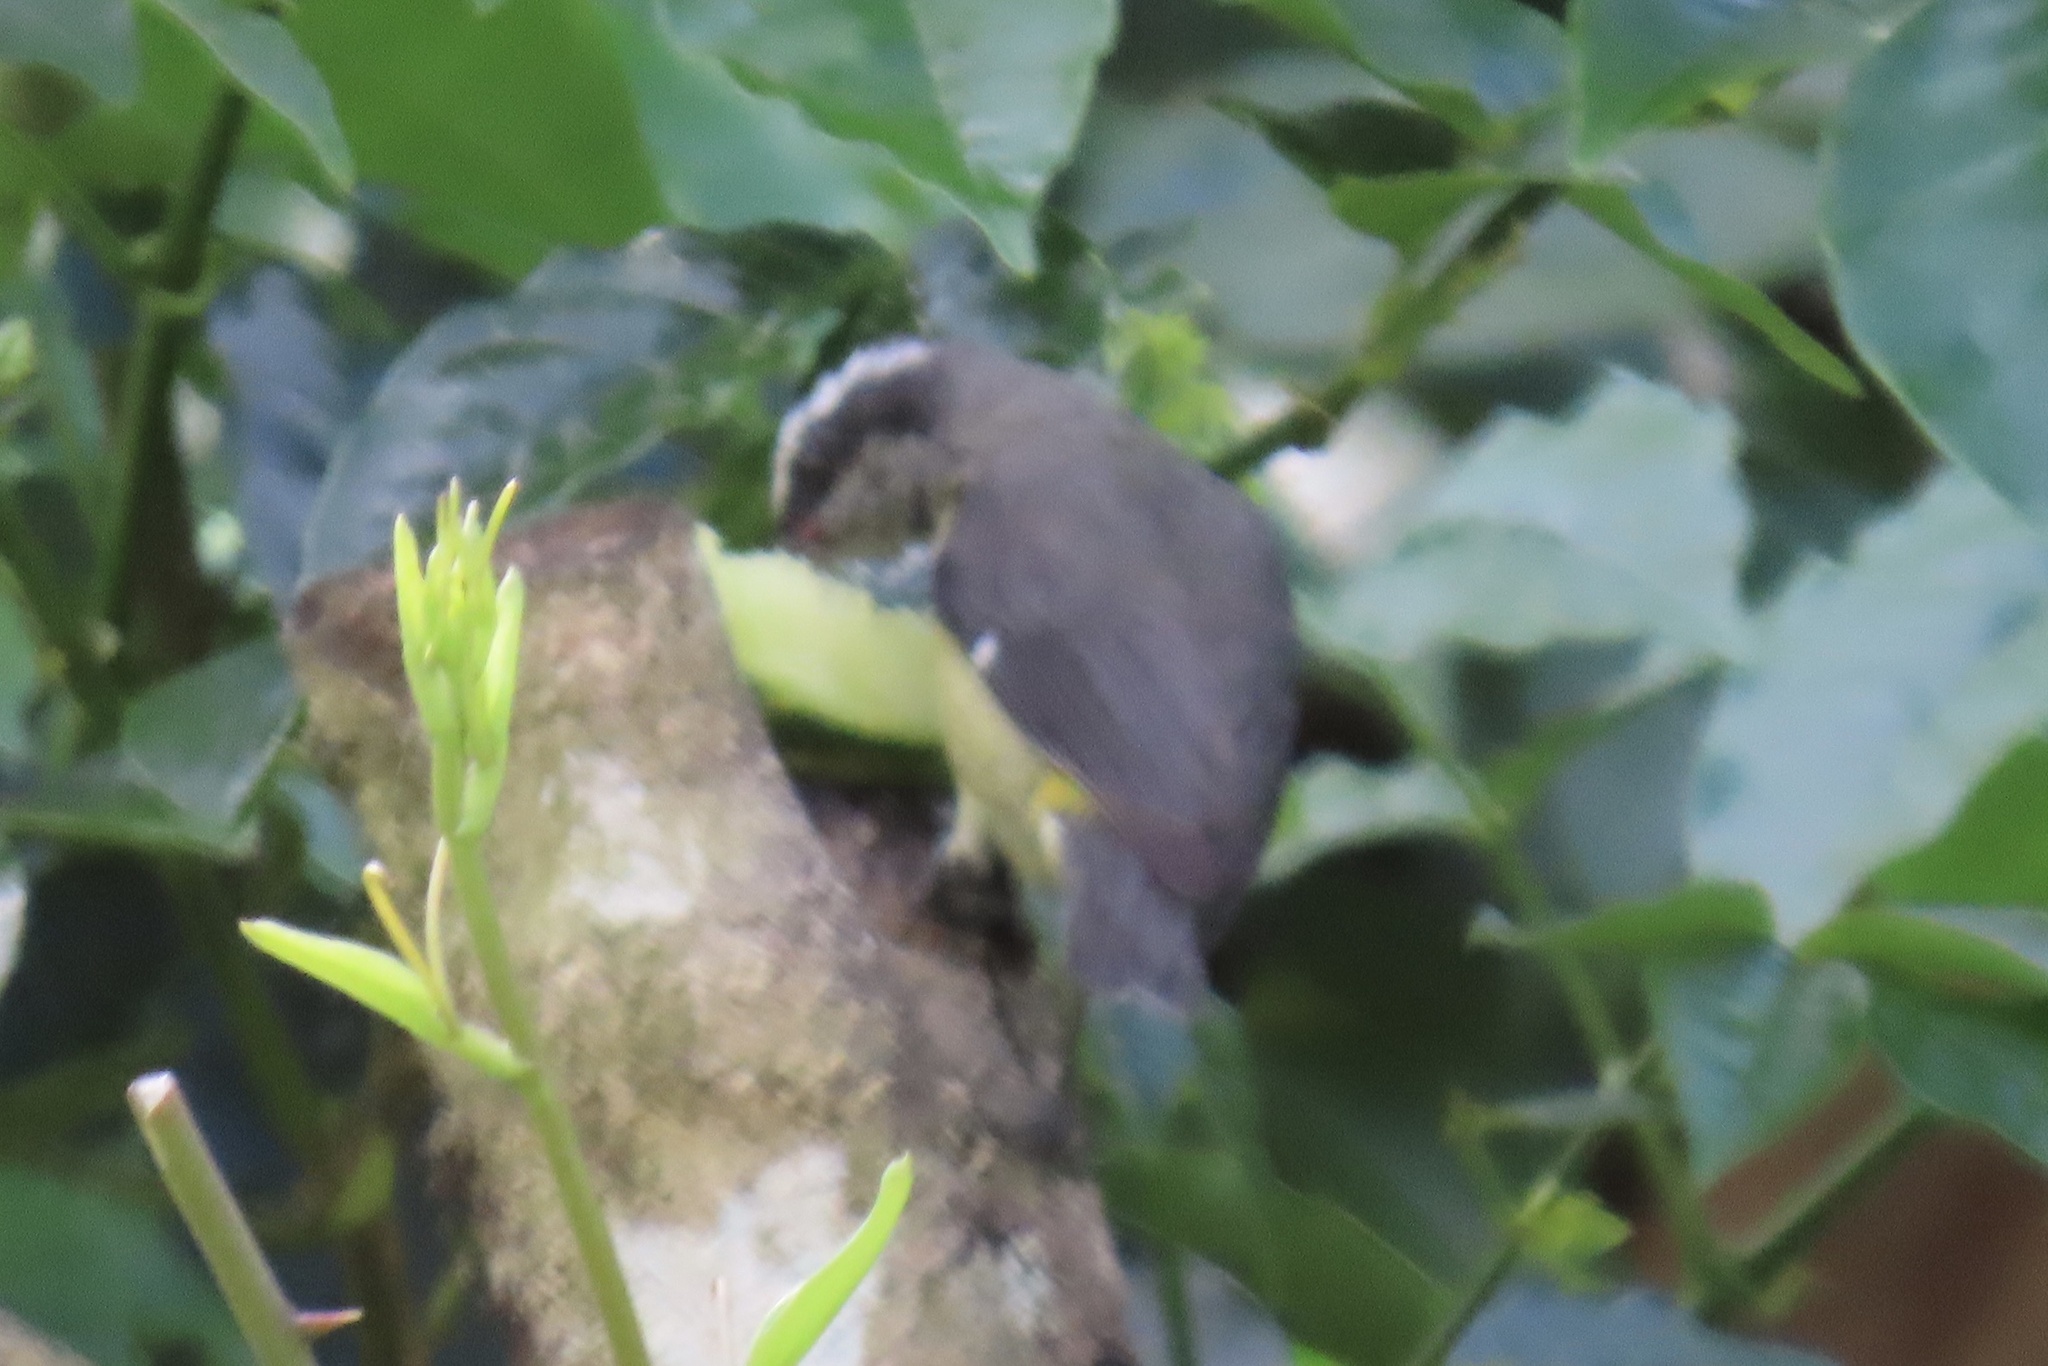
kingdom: Animalia
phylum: Chordata
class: Aves
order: Passeriformes
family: Thraupidae
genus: Coereba
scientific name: Coereba flaveola
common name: Bananaquit
